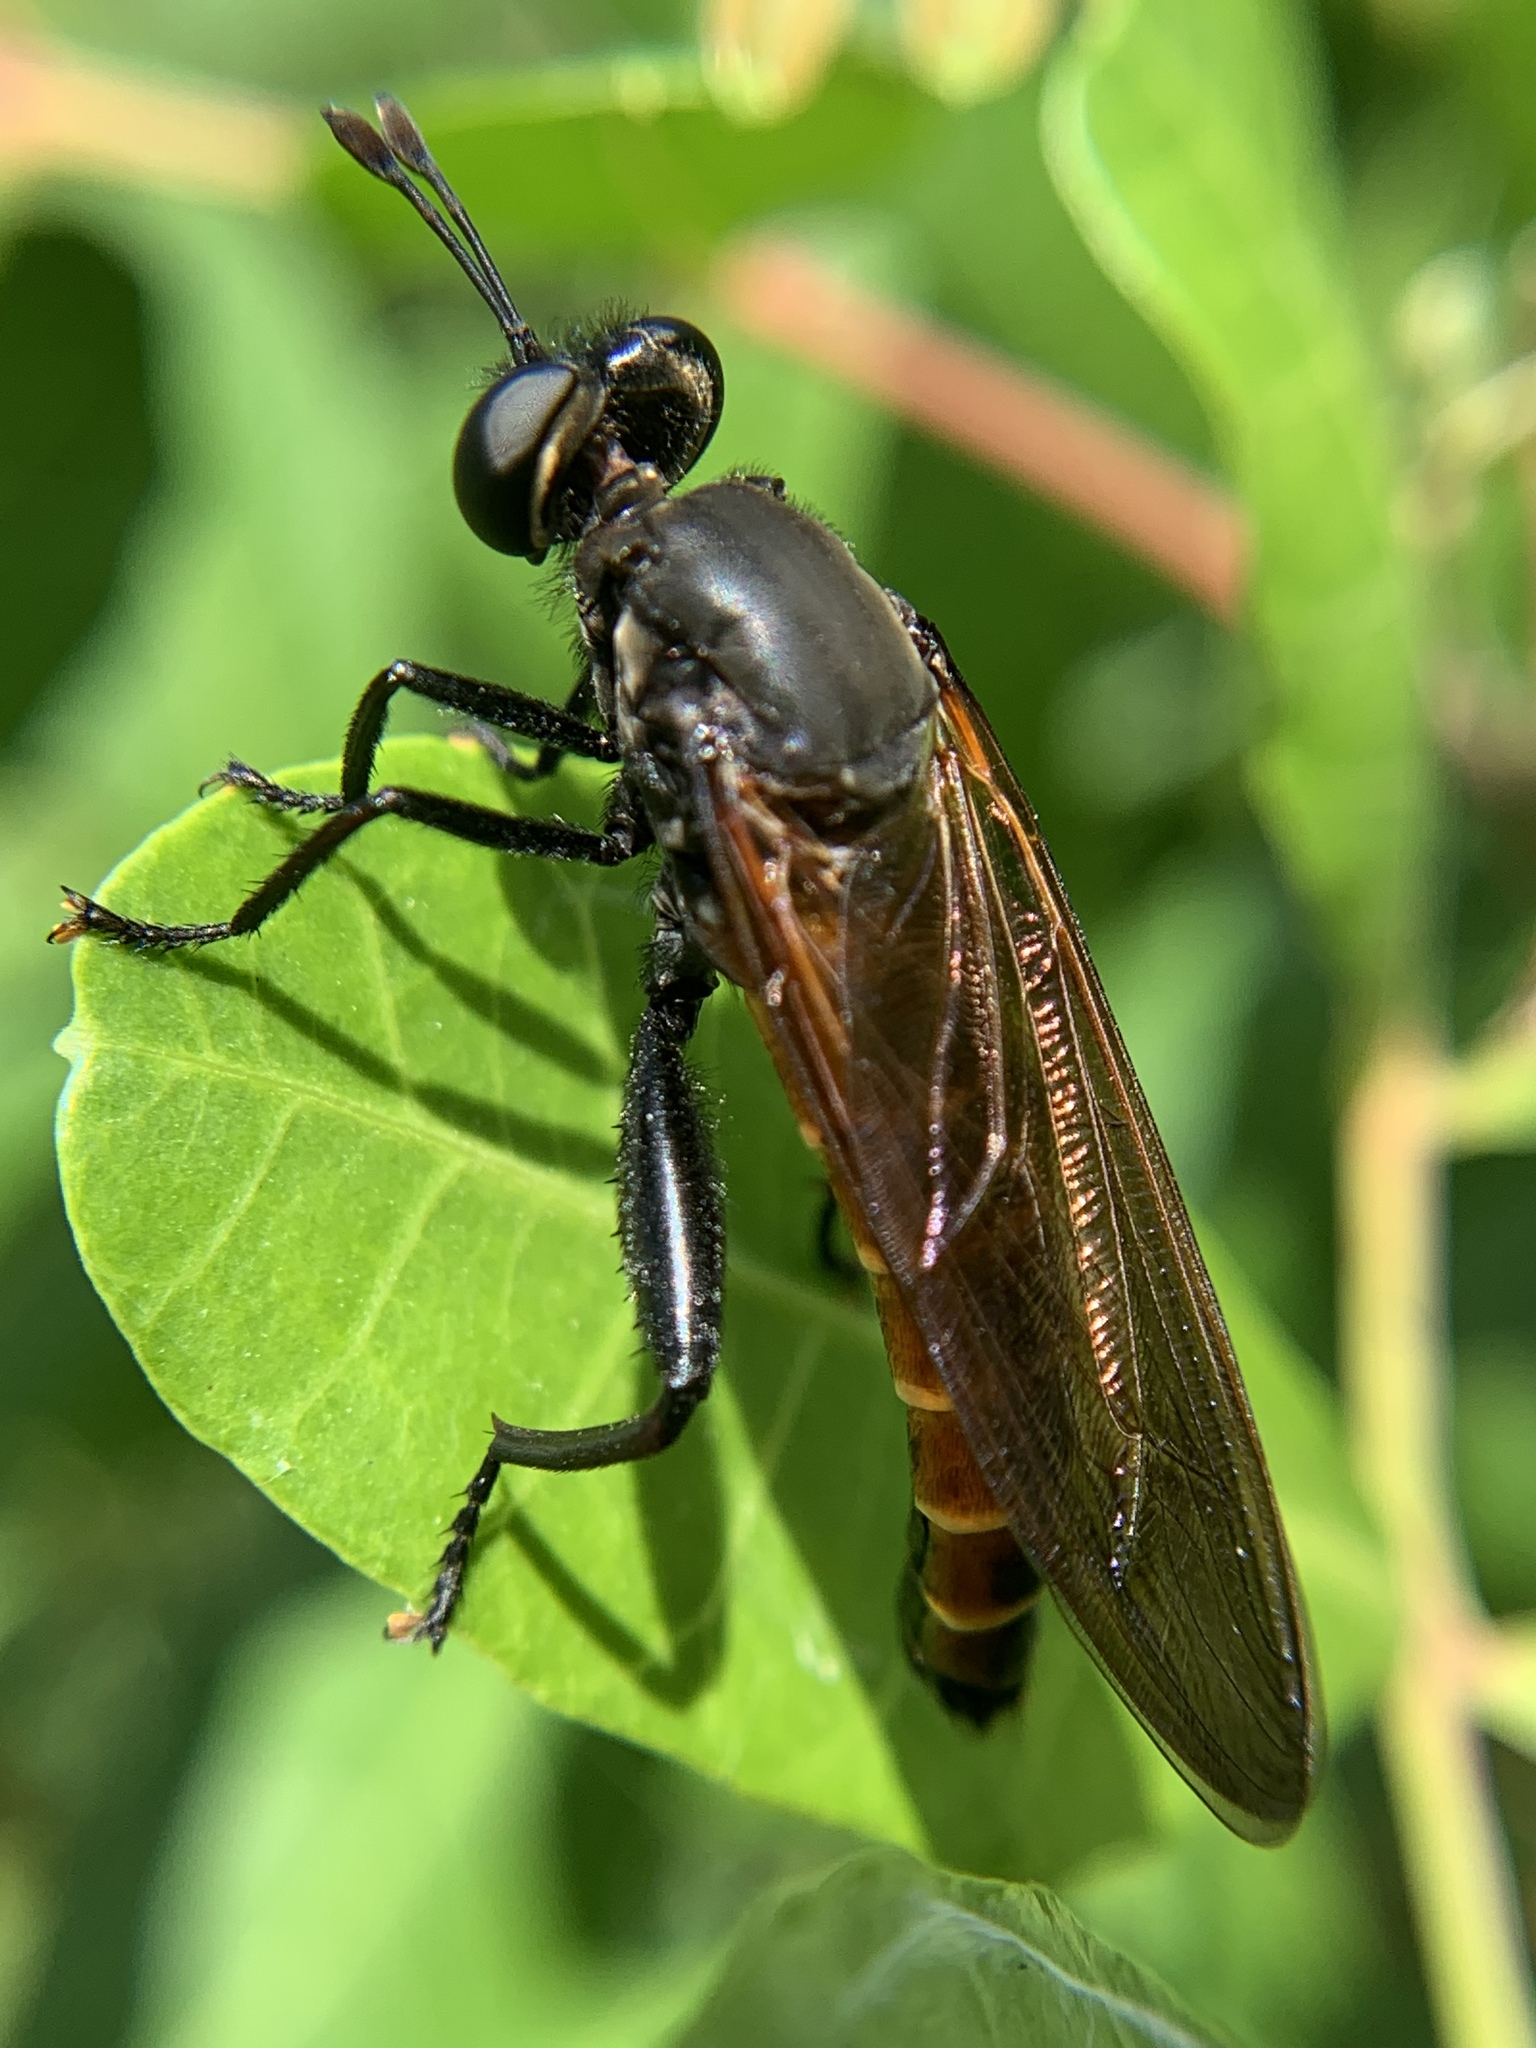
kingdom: Animalia
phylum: Arthropoda
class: Insecta
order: Diptera
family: Mydidae
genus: Mydas
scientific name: Mydas maculiventris
